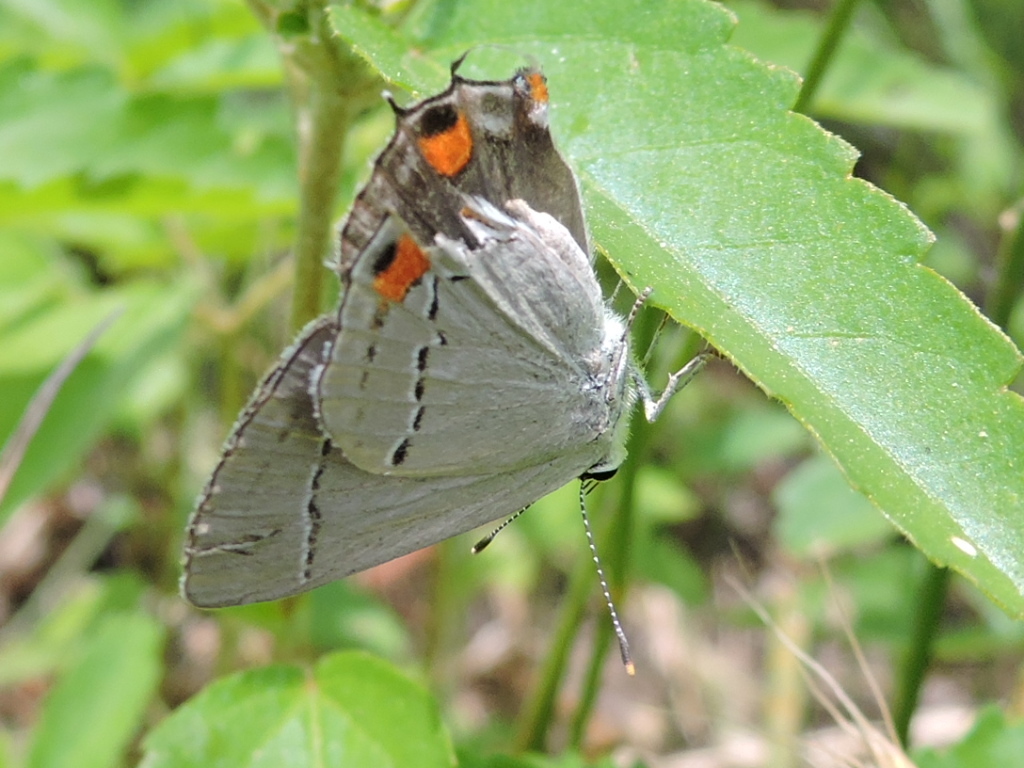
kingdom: Animalia
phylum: Arthropoda
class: Insecta
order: Lepidoptera
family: Lycaenidae
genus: Strymon
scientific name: Strymon melinus
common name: Gray hairstreak
